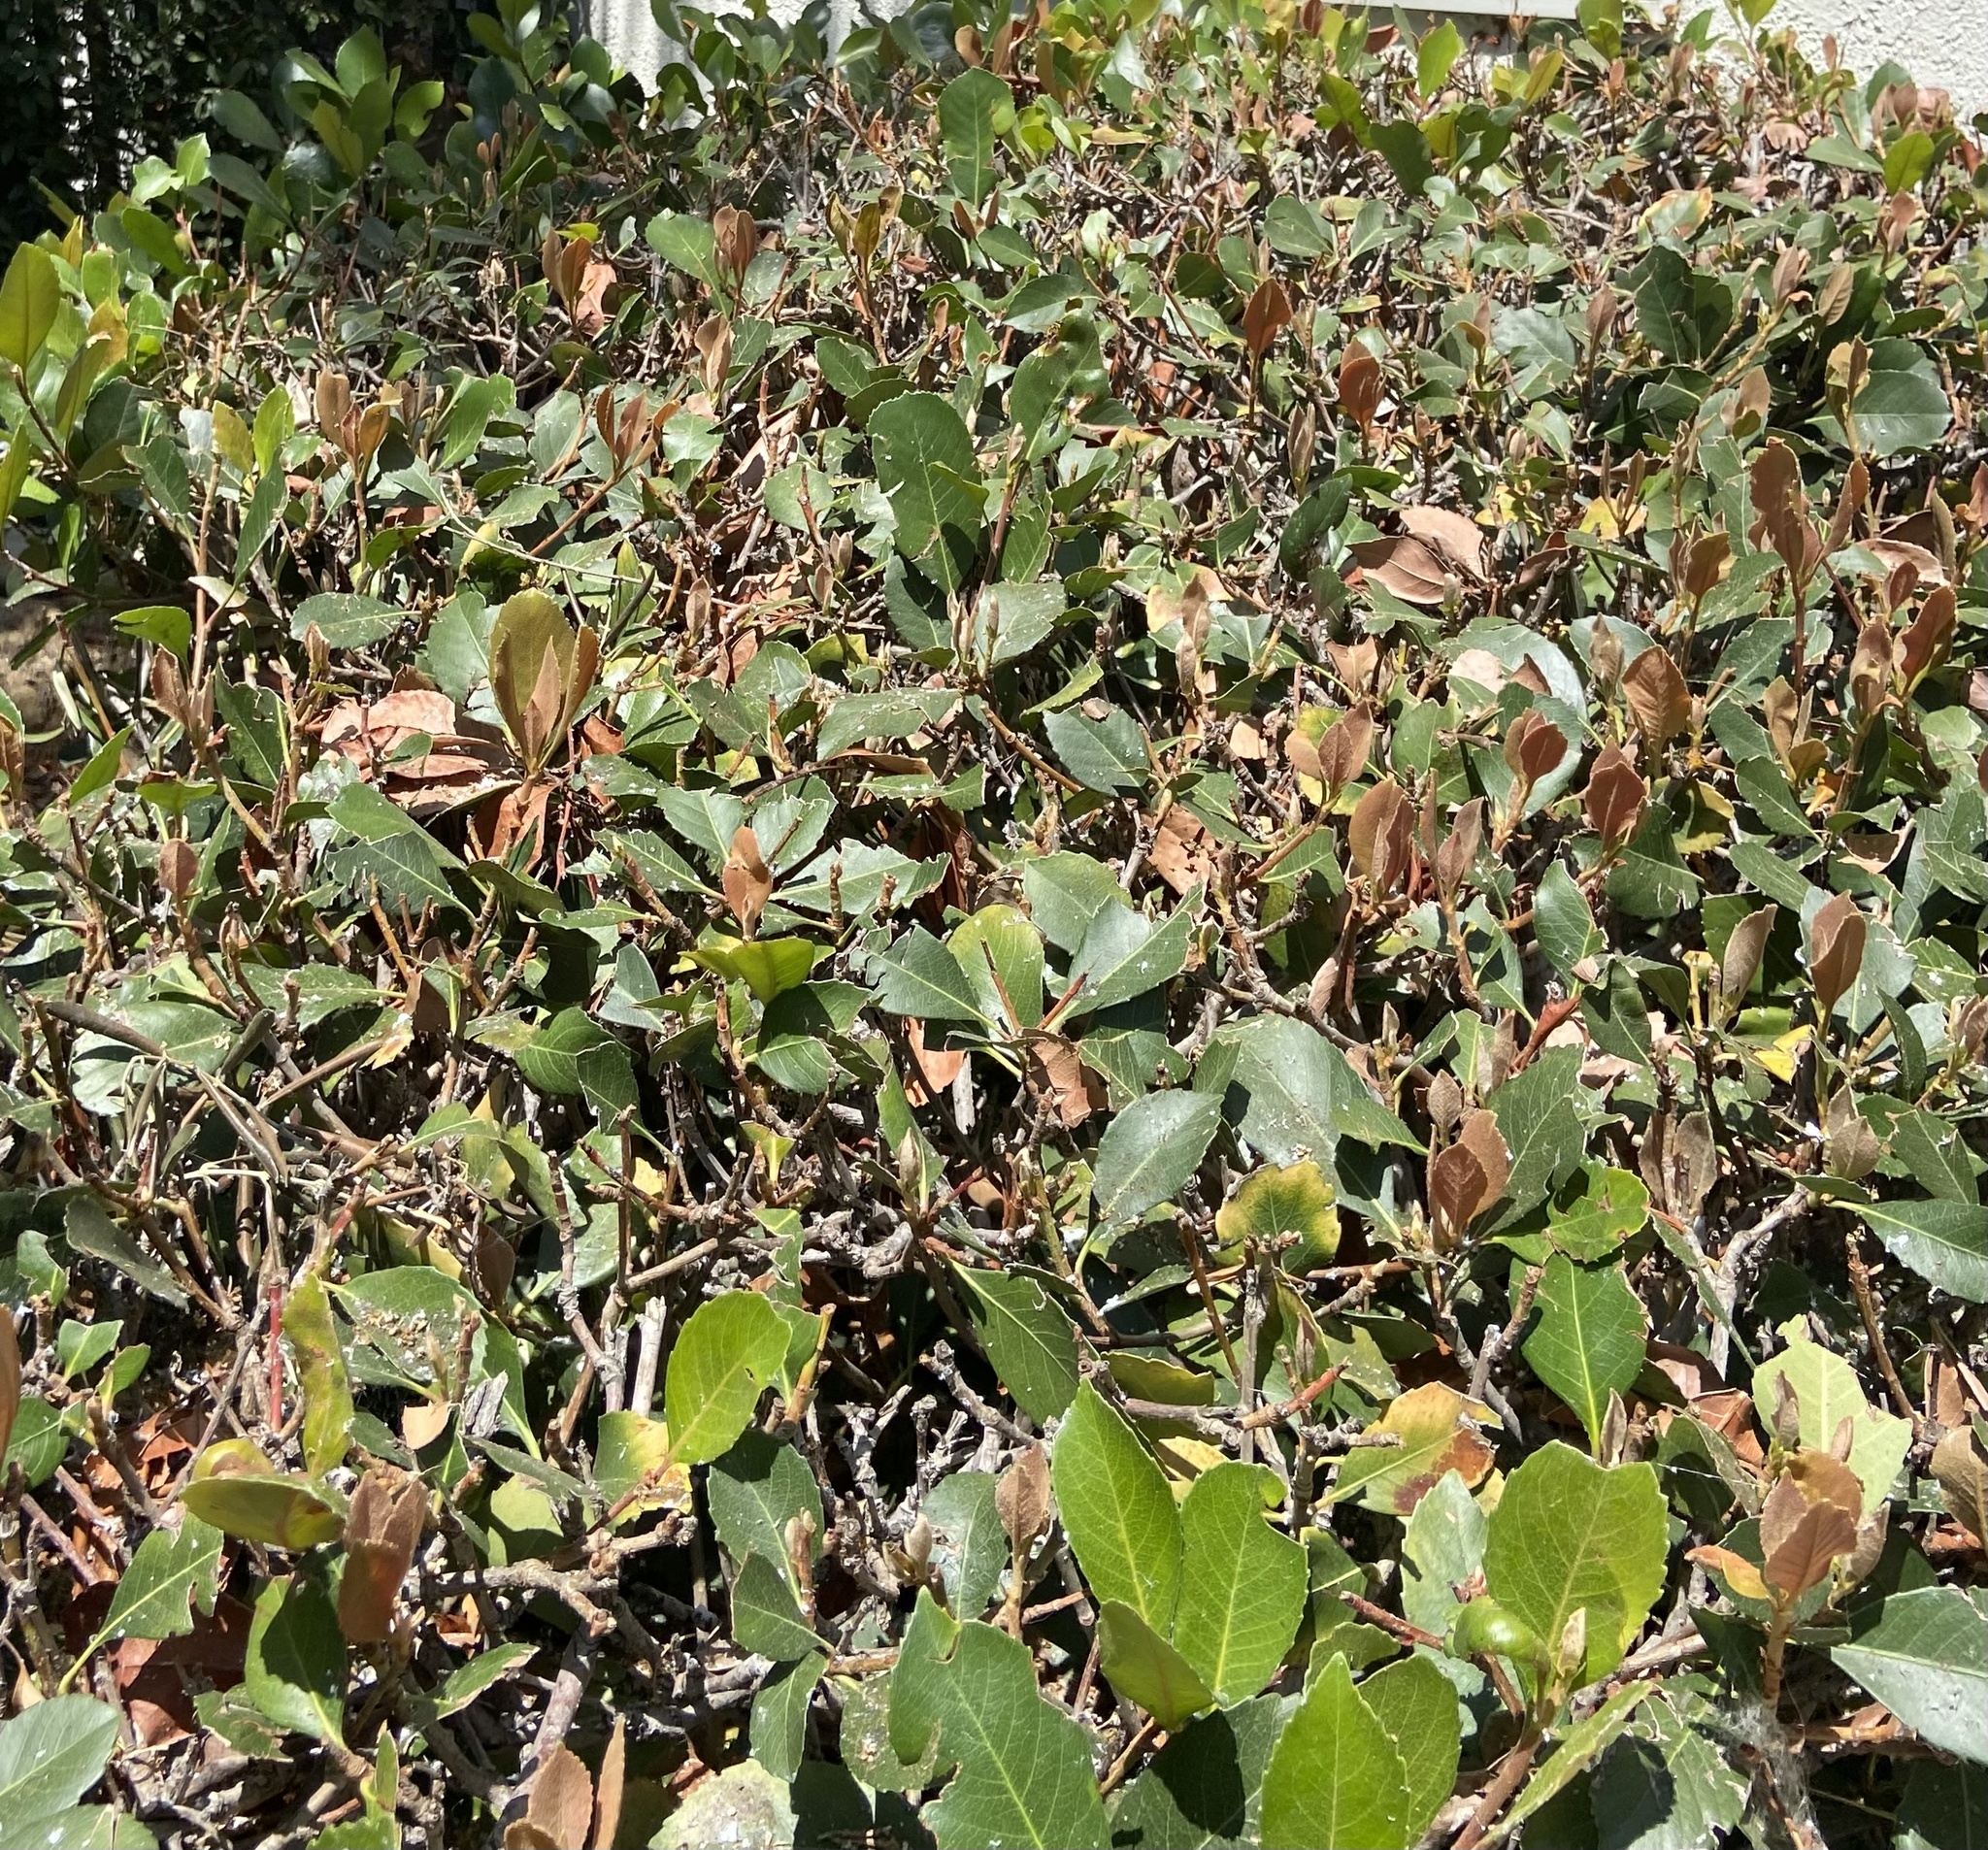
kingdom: Animalia
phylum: Arthropoda
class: Insecta
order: Hymenoptera
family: Sphecidae
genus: Sceliphron
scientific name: Sceliphron caementarium
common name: Mud dauber
